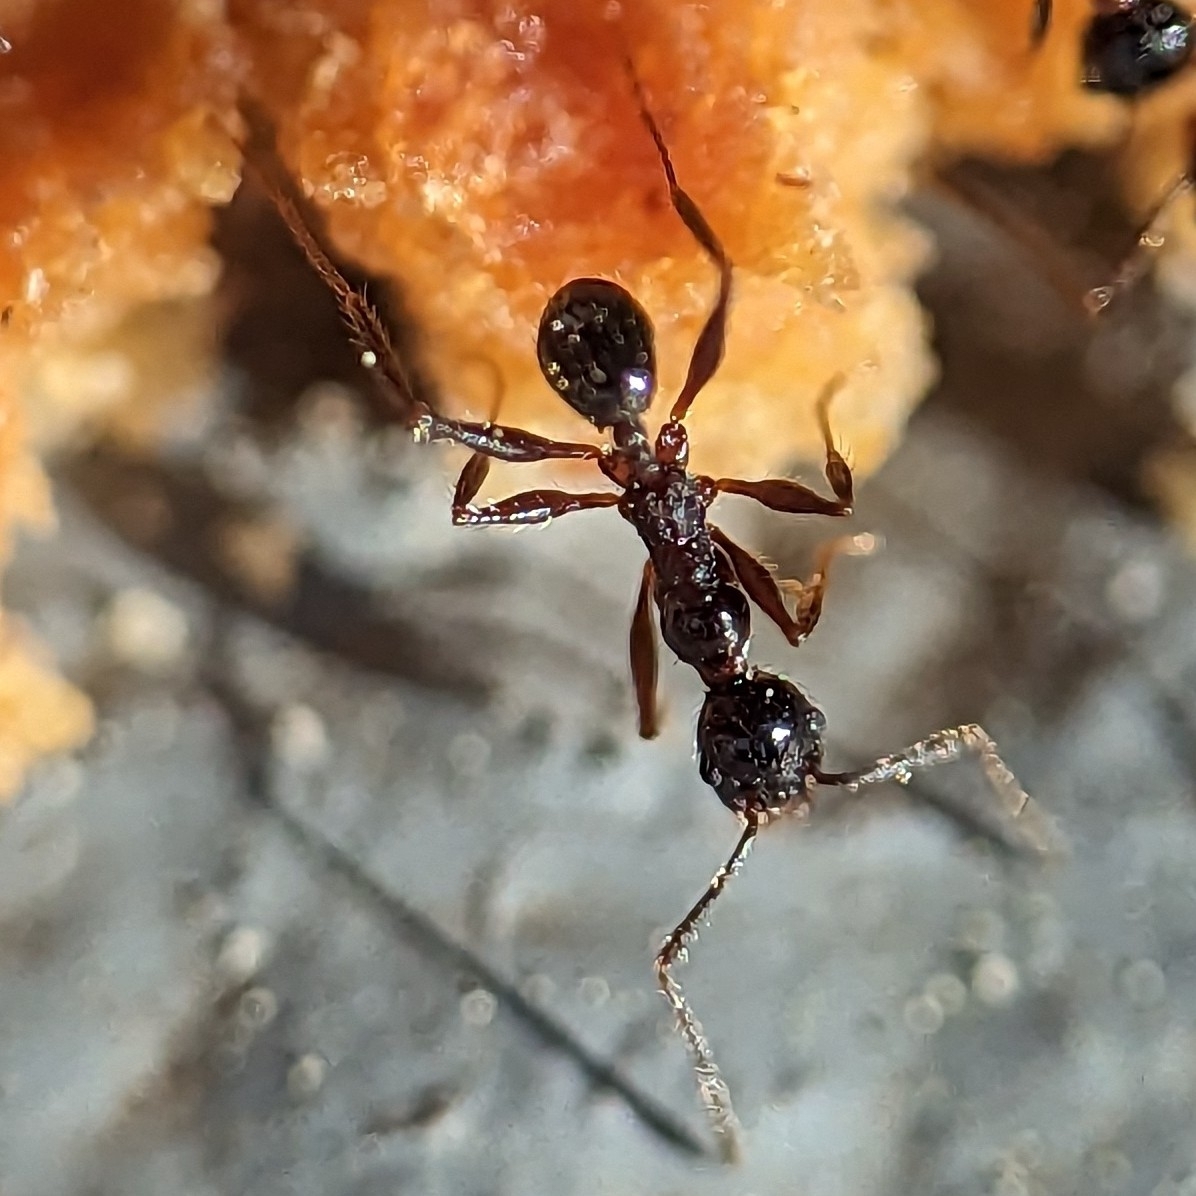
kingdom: Animalia
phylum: Arthropoda
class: Insecta
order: Hymenoptera
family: Formicidae
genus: Pheidole
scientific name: Pheidole obscurithorax
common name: Obscure big-headed ant
